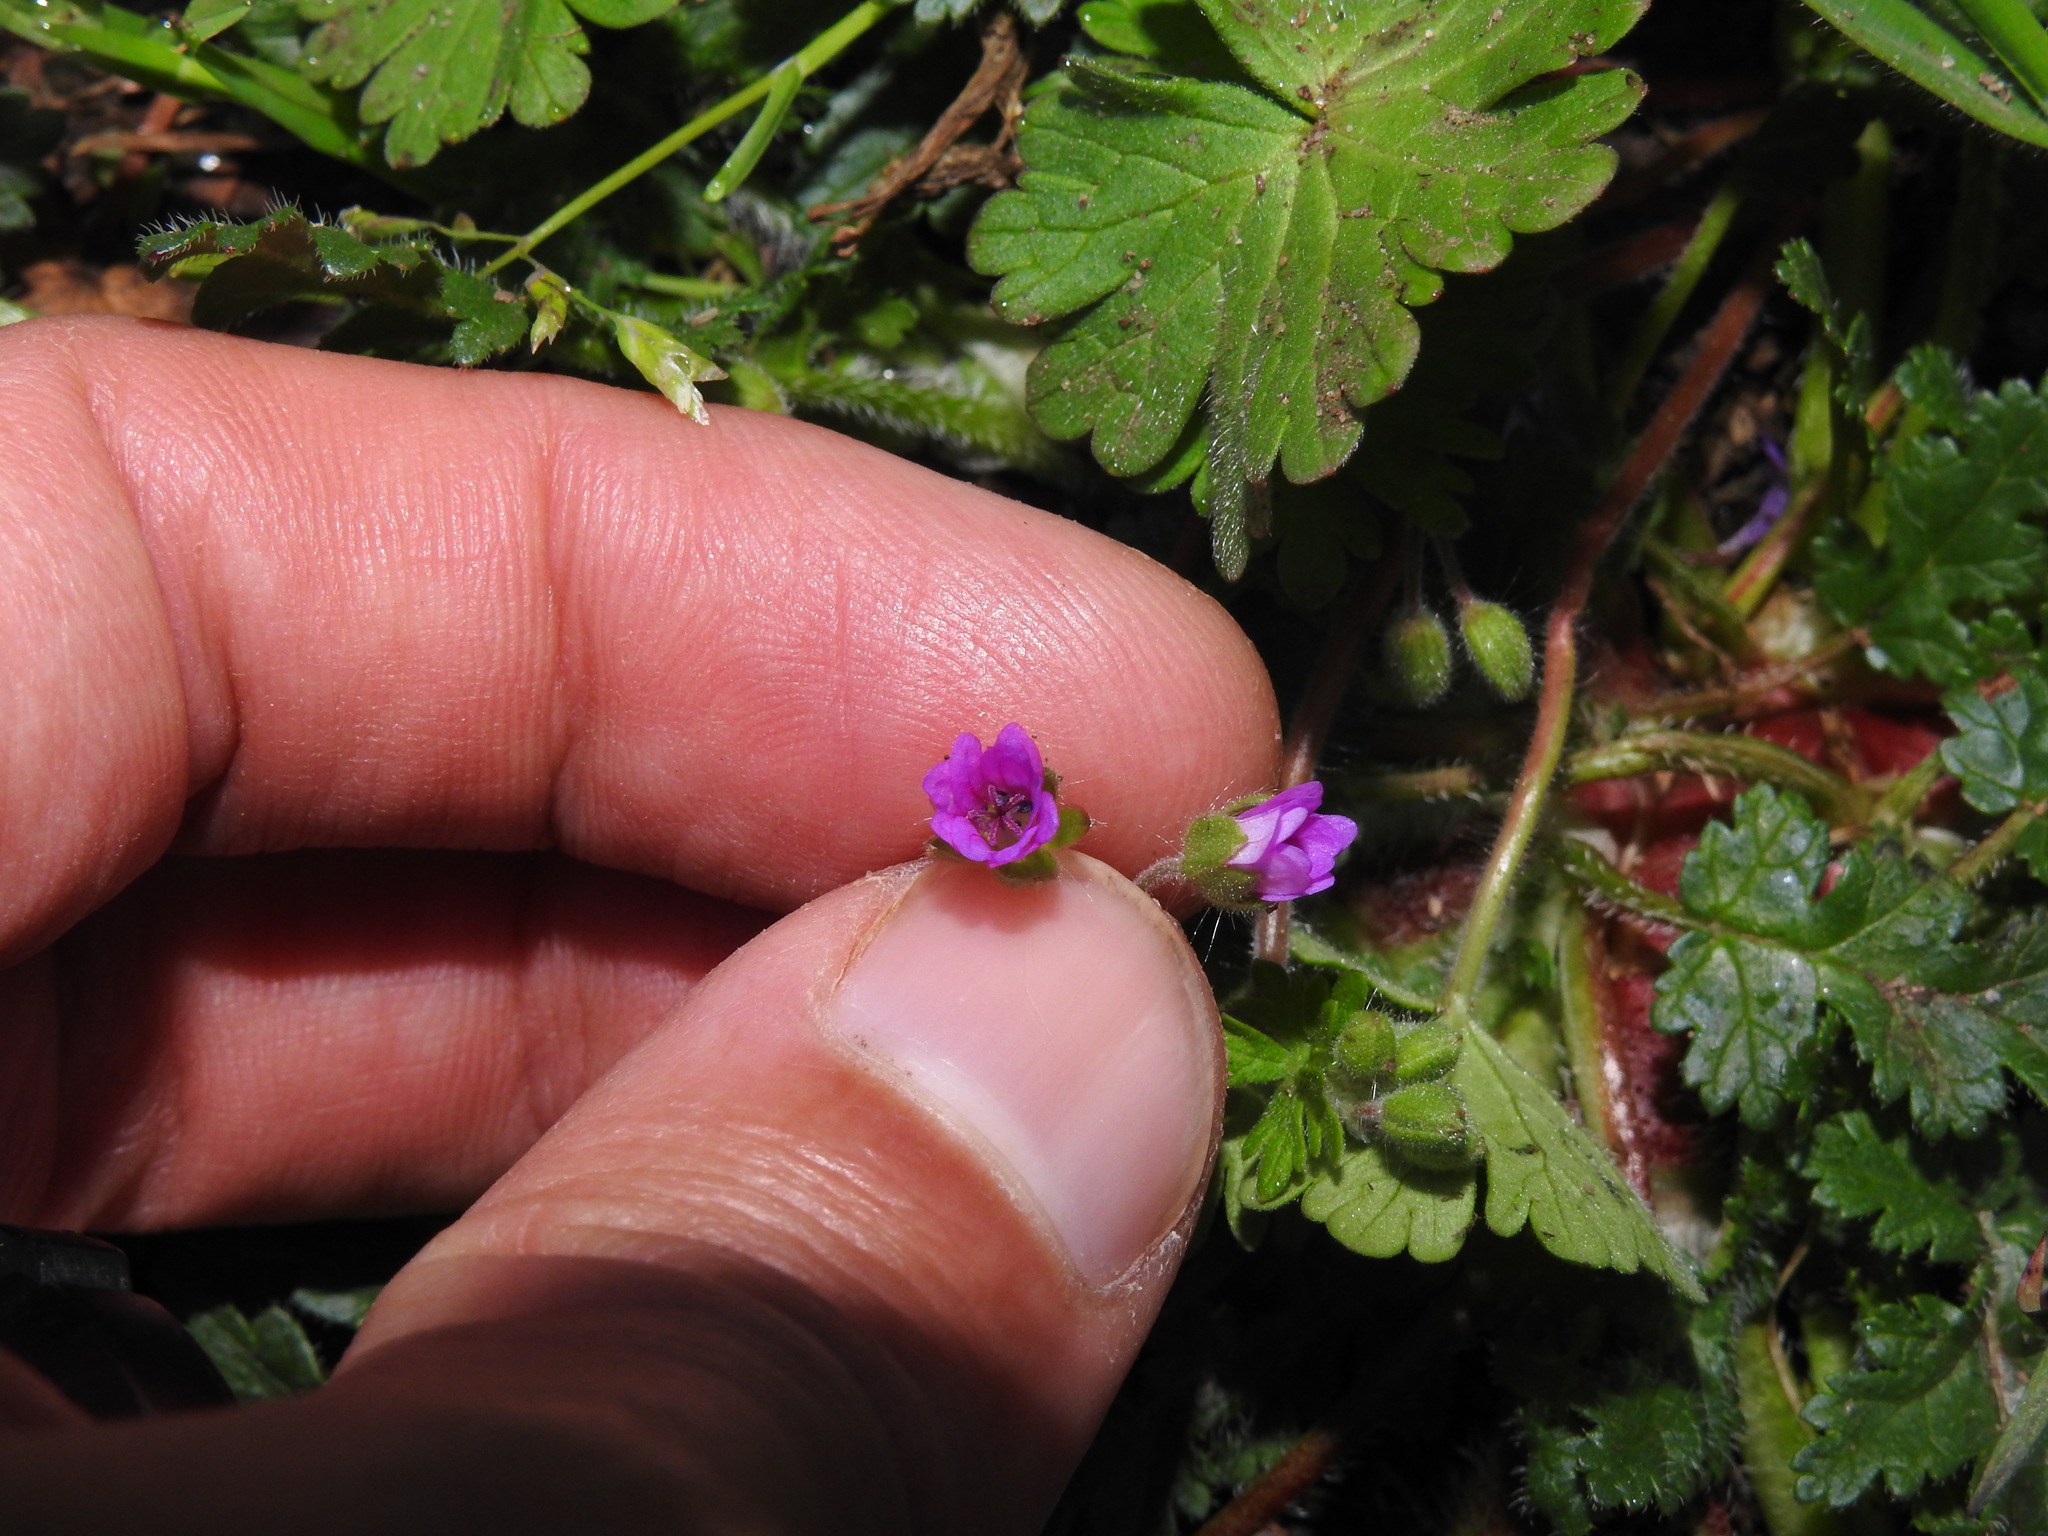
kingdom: Plantae
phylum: Tracheophyta
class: Magnoliopsida
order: Geraniales
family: Geraniaceae
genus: Erodium
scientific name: Erodium botrys
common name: Mediterranean stork's-bill
